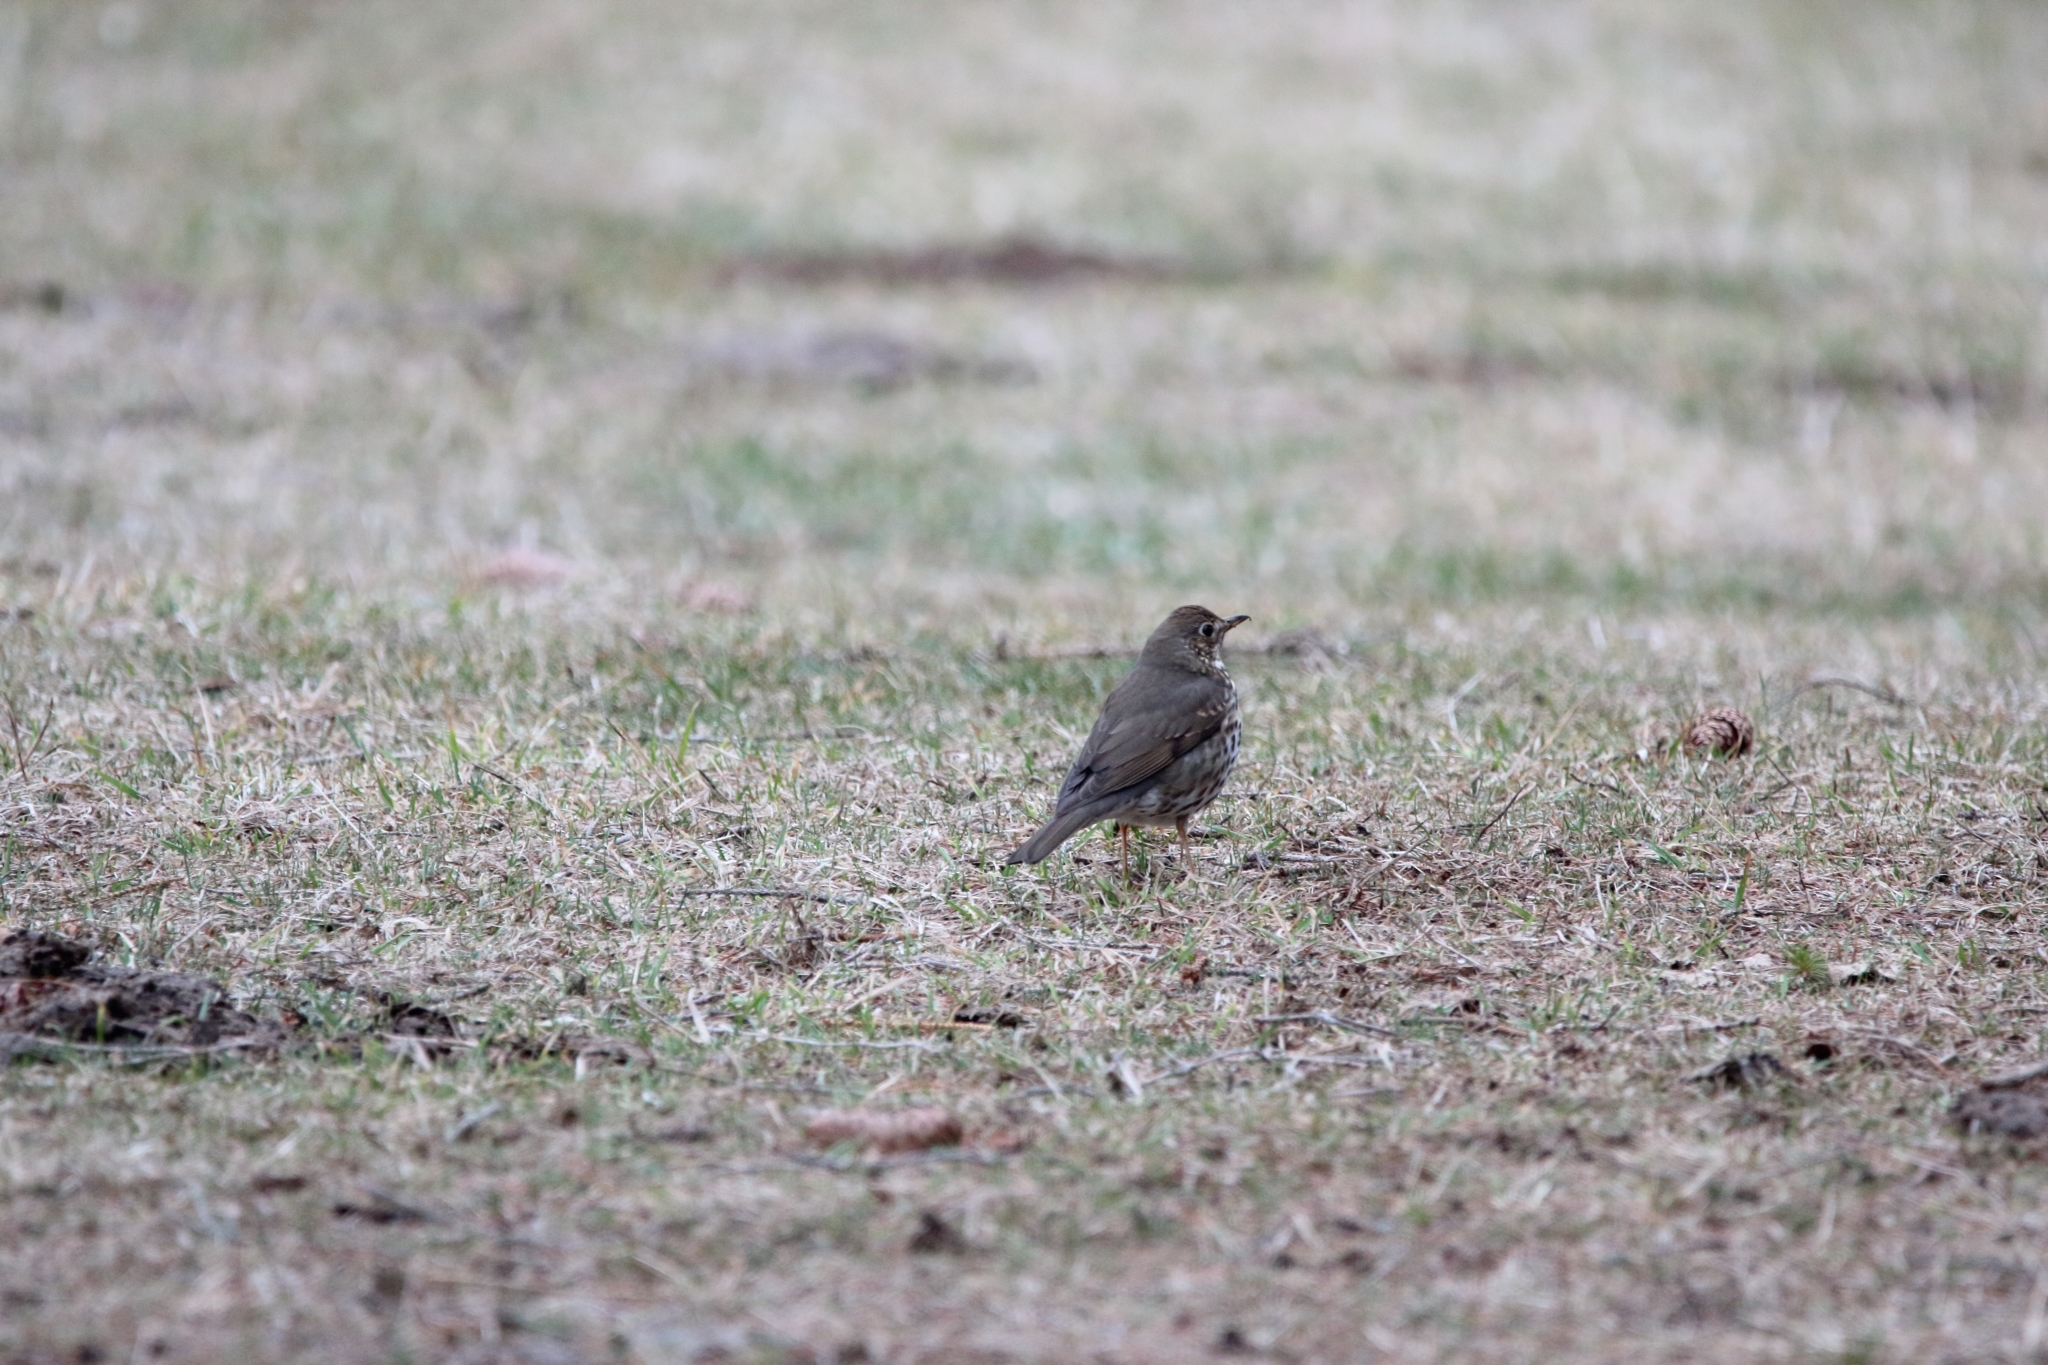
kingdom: Animalia
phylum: Chordata
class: Aves
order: Passeriformes
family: Turdidae
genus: Turdus
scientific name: Turdus philomelos
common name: Song thrush
